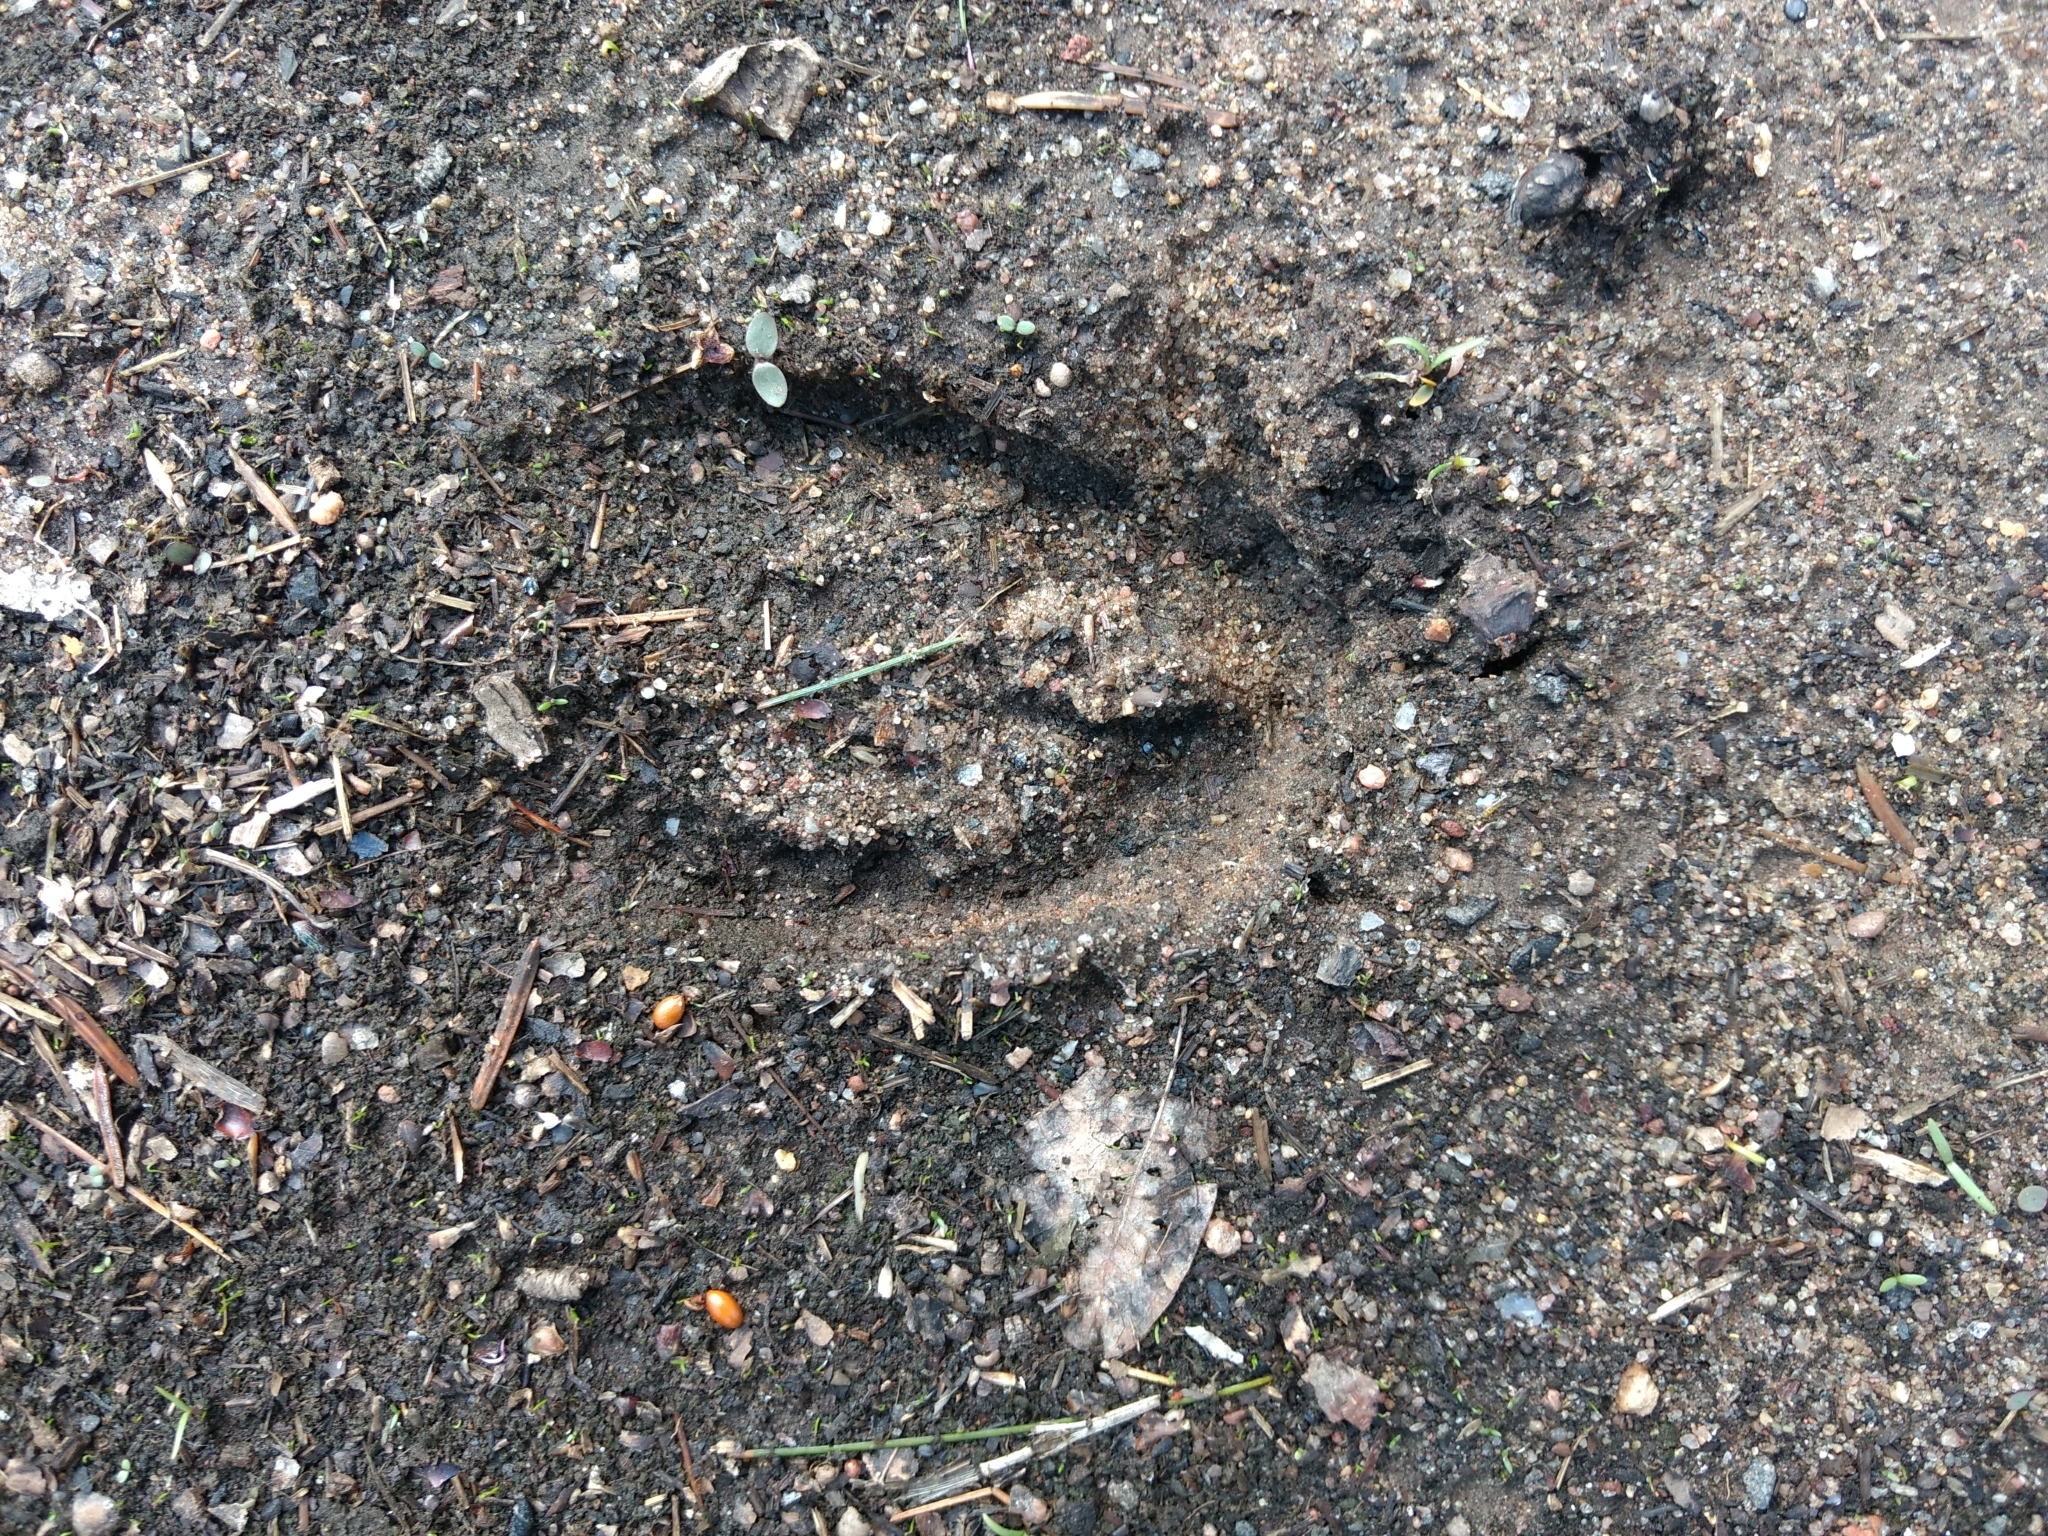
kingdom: Animalia
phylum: Chordata
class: Mammalia
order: Artiodactyla
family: Cervidae
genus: Odocoileus
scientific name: Odocoileus virginianus
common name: White-tailed deer
